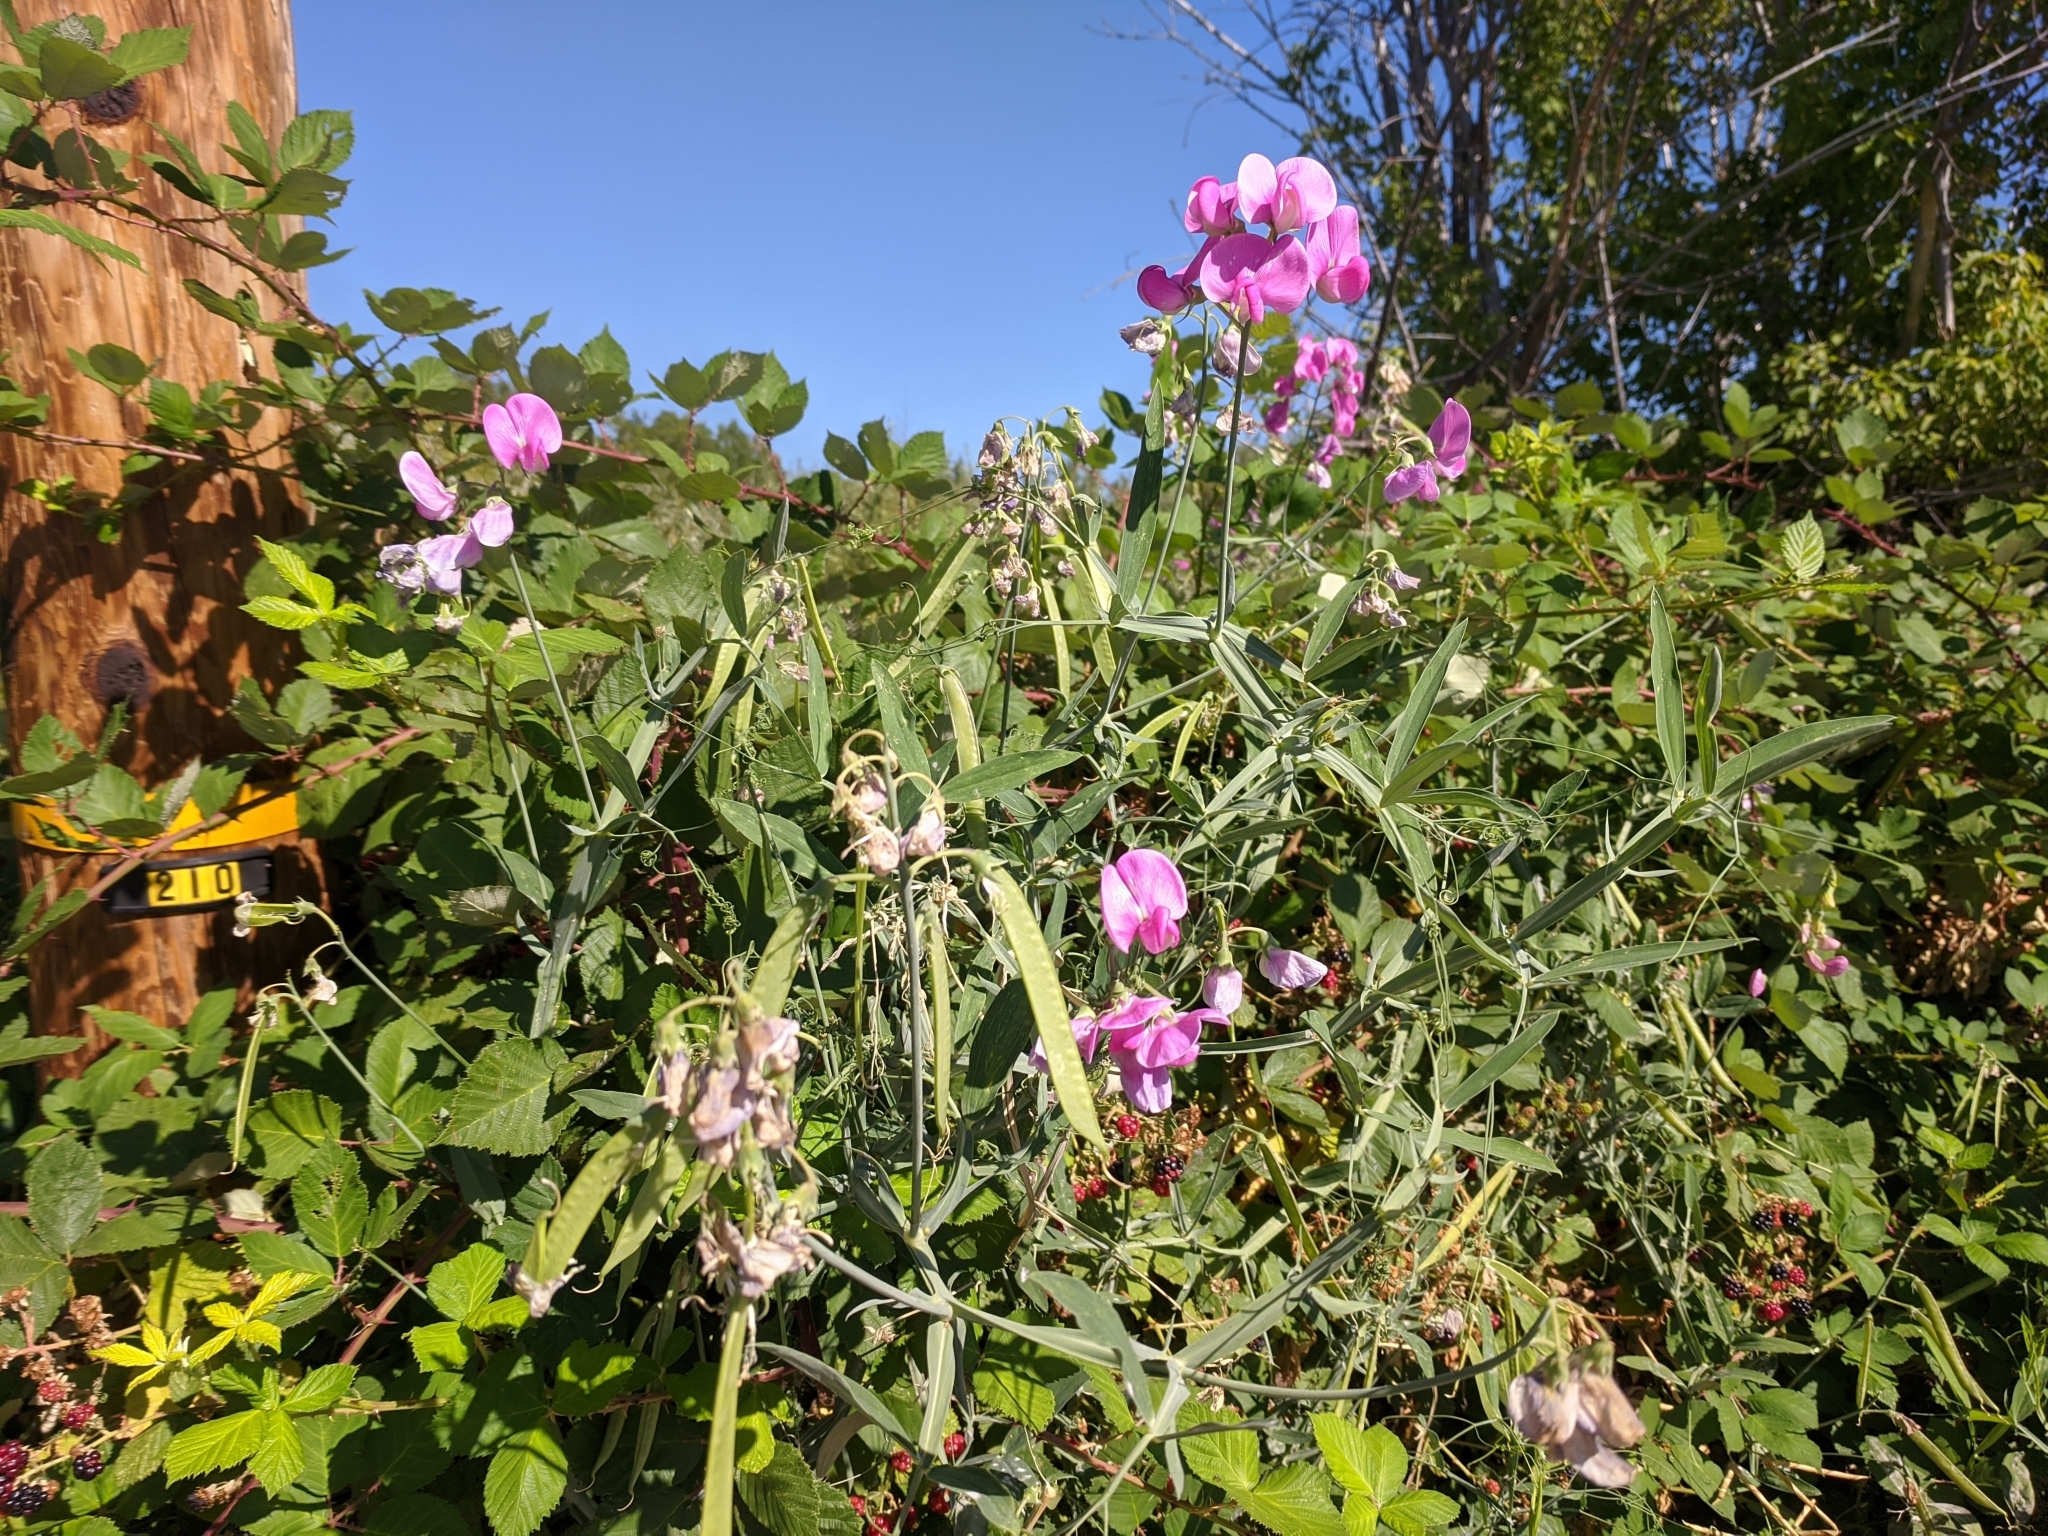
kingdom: Plantae
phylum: Tracheophyta
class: Magnoliopsida
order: Fabales
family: Fabaceae
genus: Lathyrus
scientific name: Lathyrus latifolius
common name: Perennial pea
